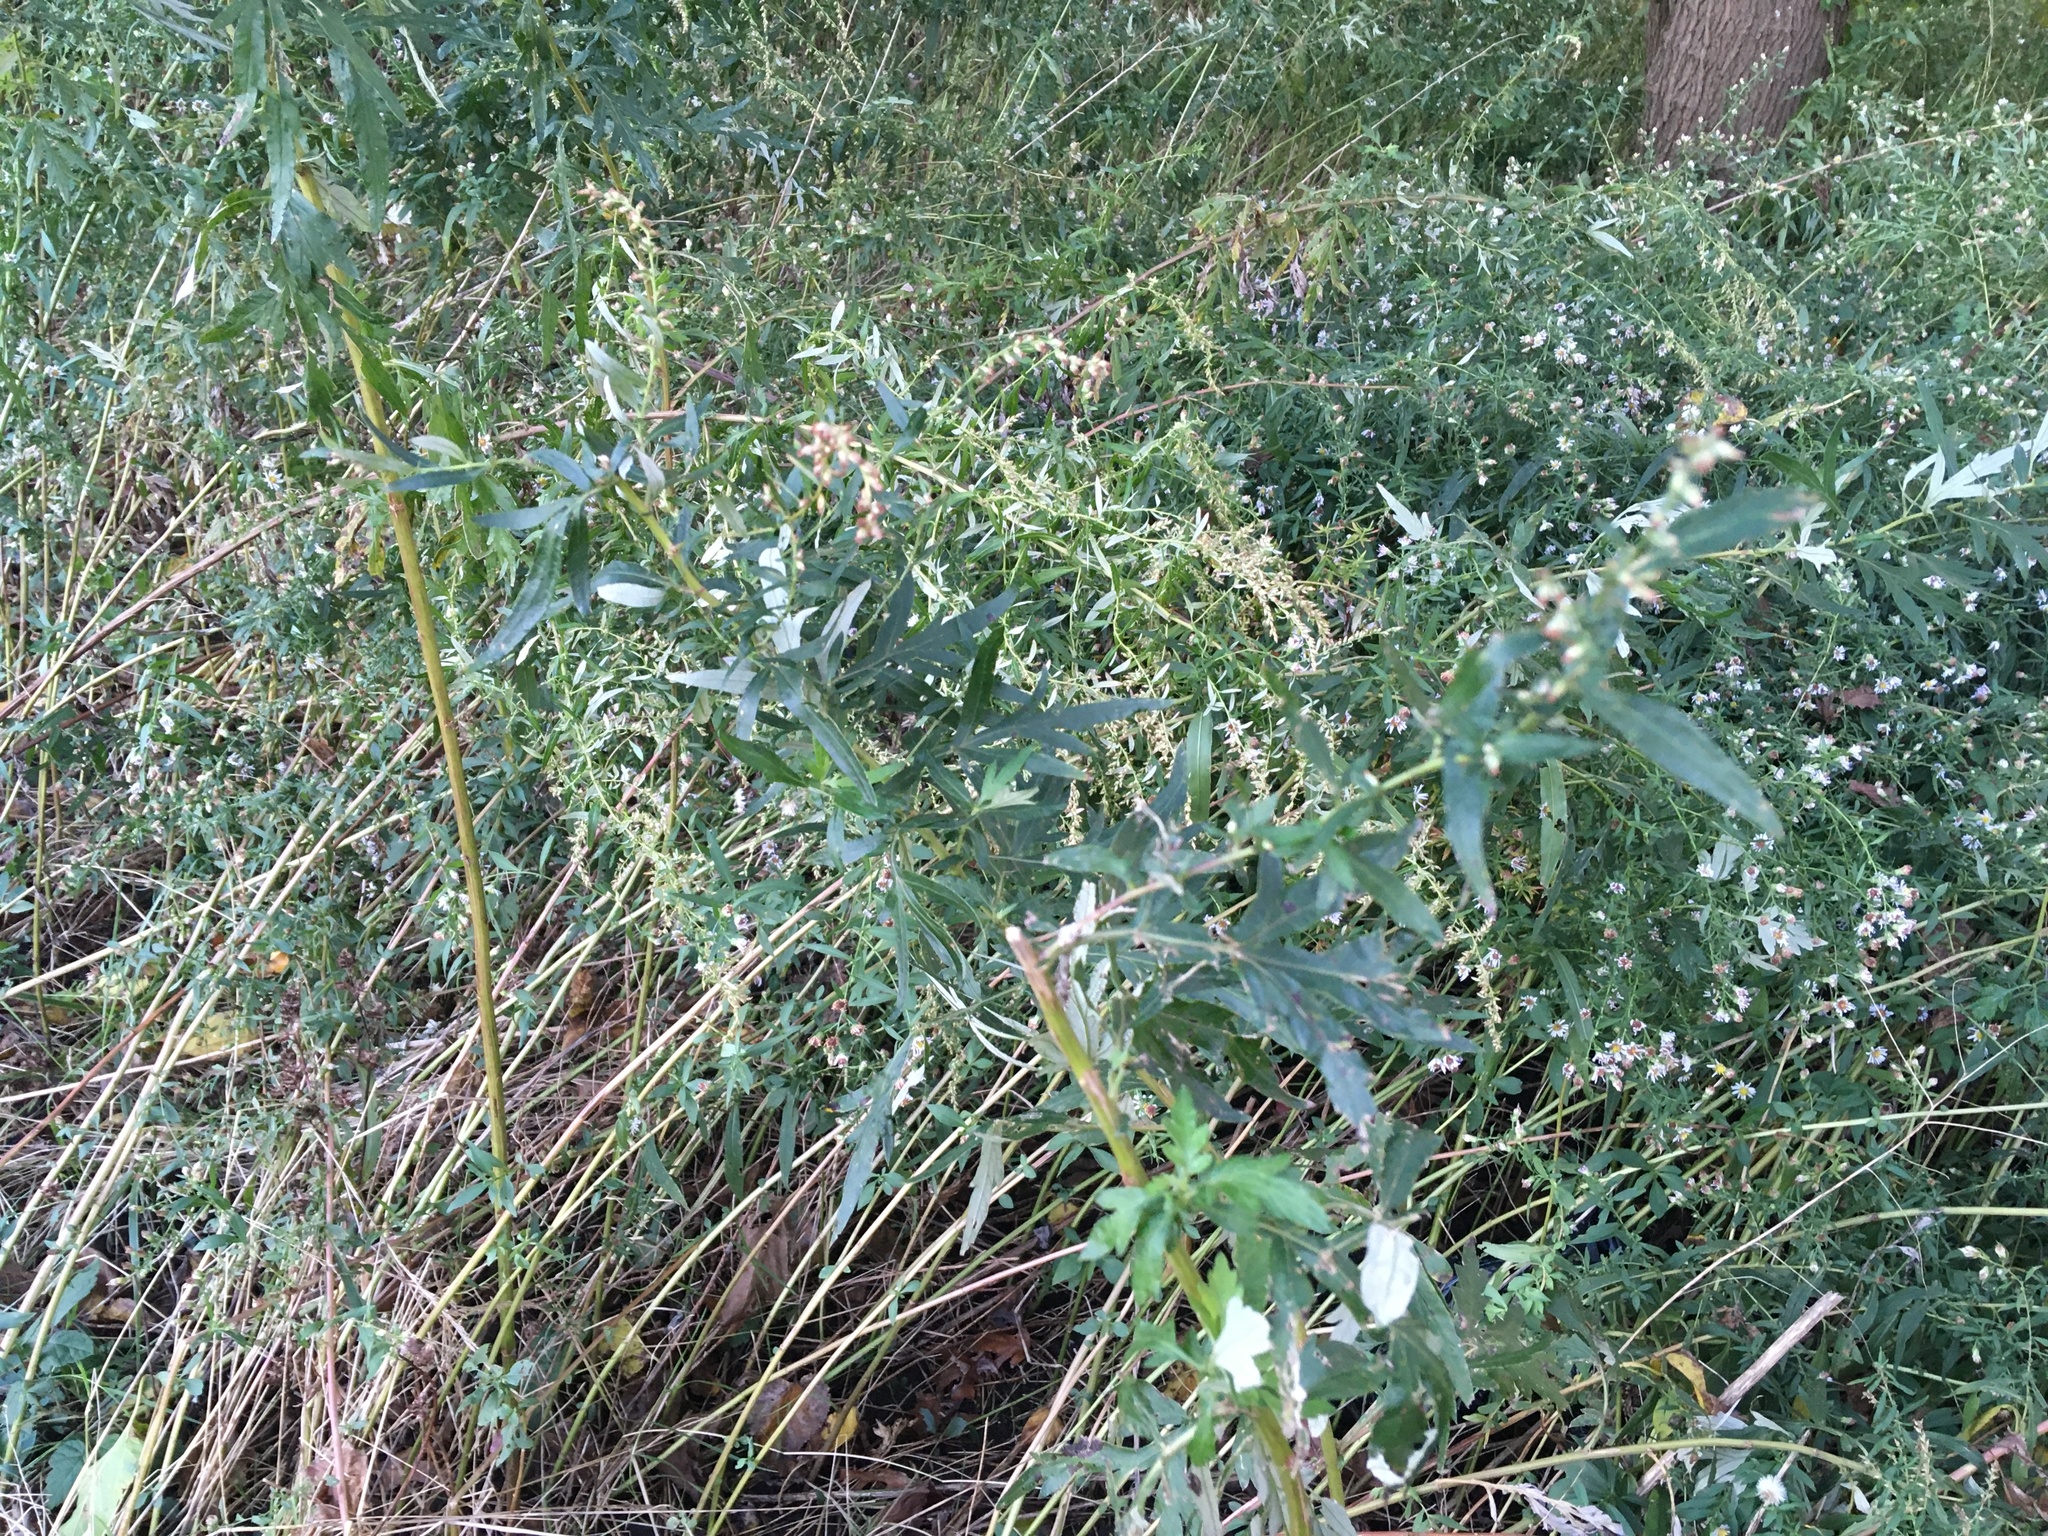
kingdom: Plantae
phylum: Tracheophyta
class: Magnoliopsida
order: Asterales
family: Asteraceae
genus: Artemisia
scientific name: Artemisia vulgaris
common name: Mugwort
